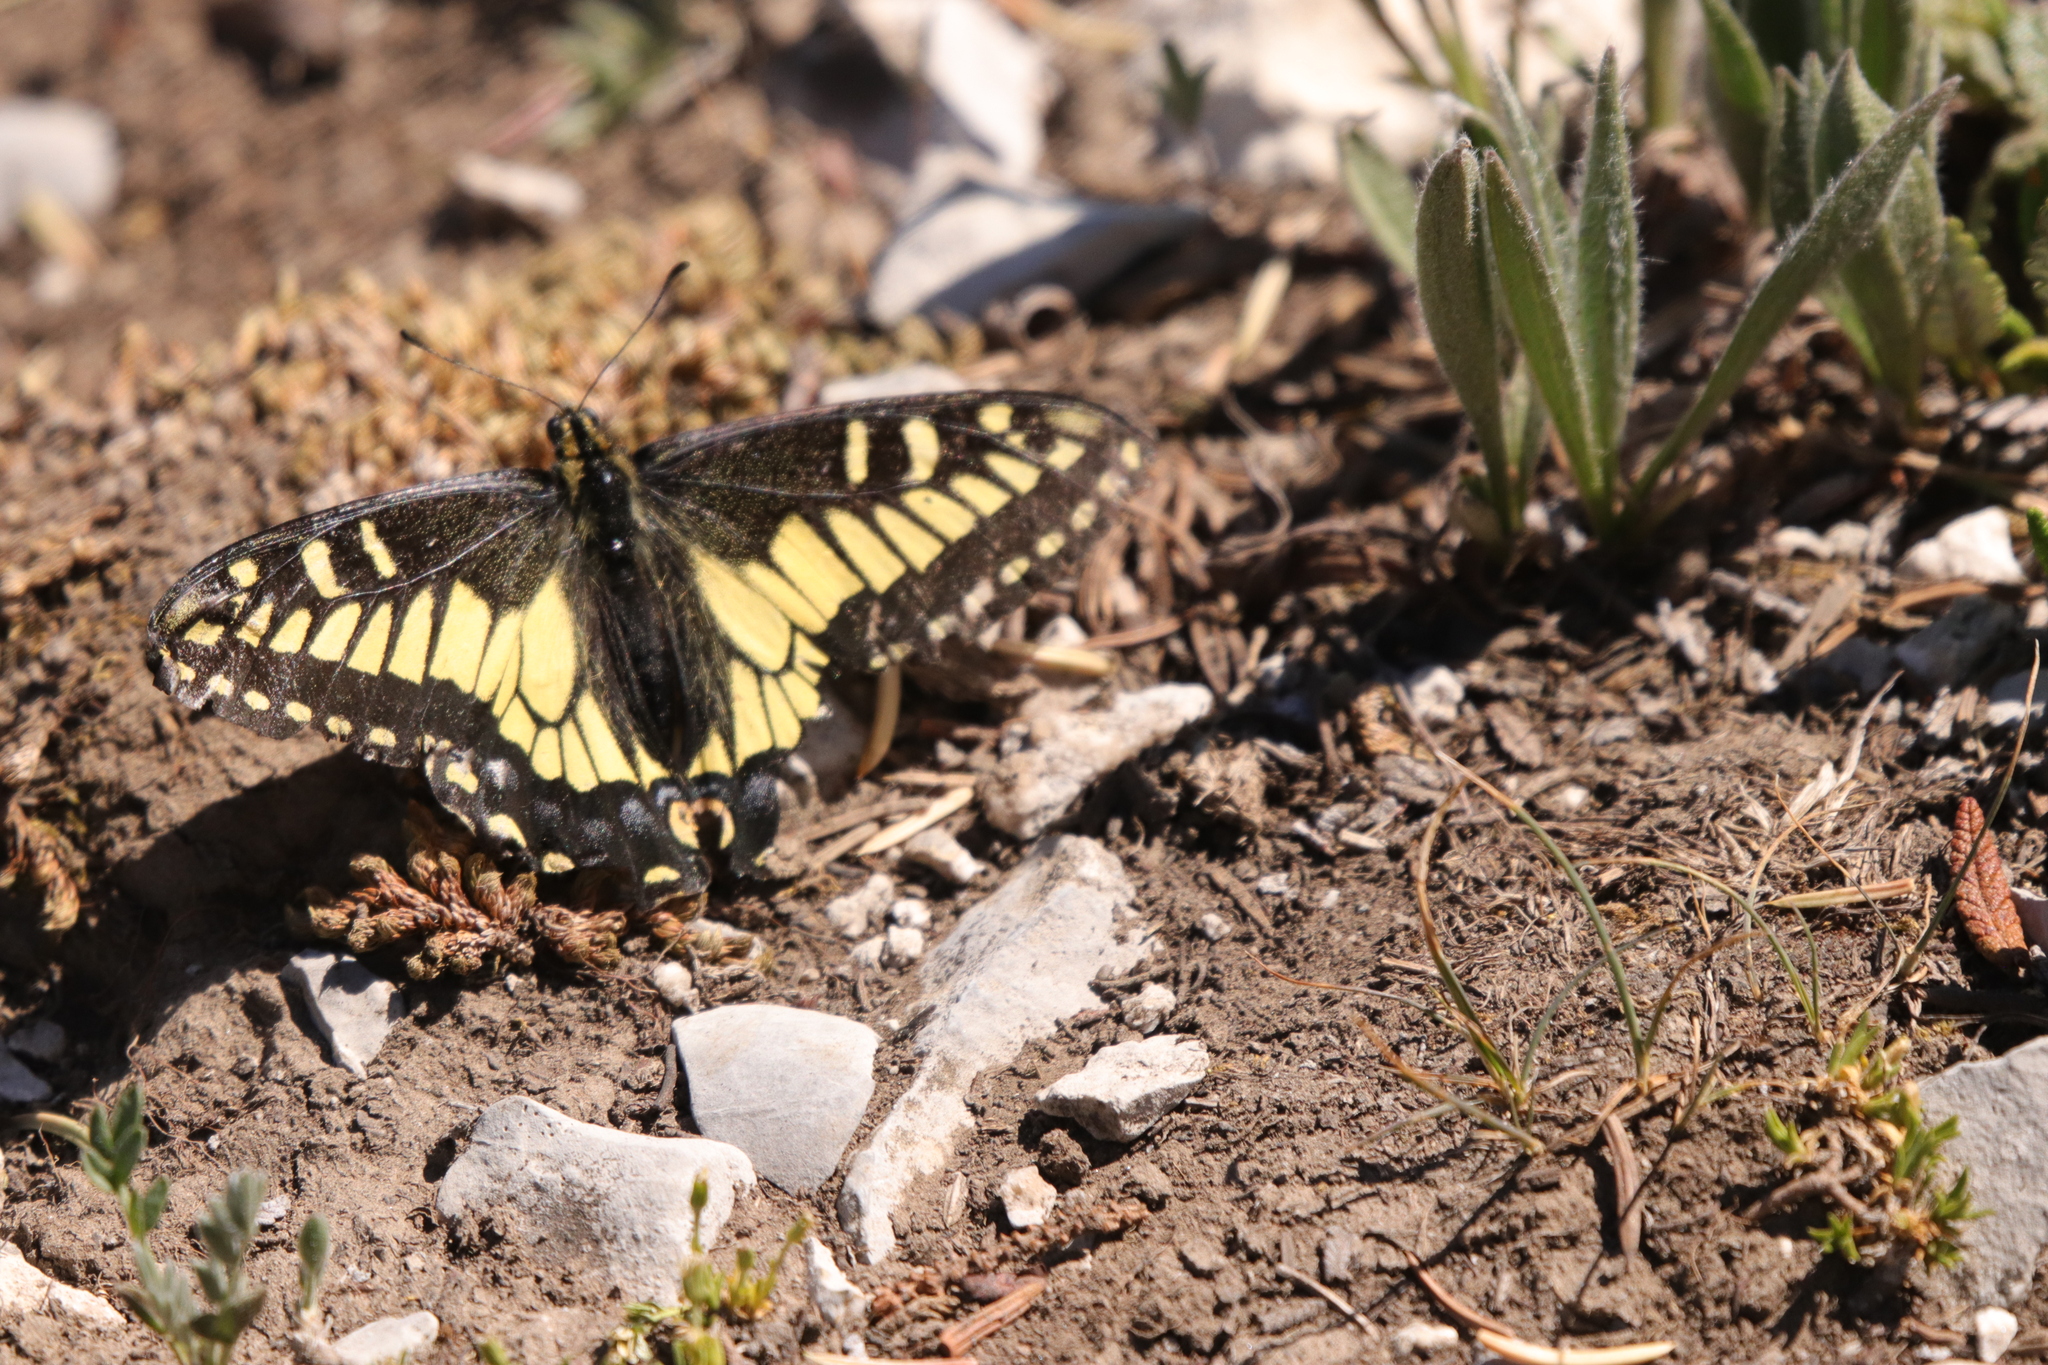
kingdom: Animalia
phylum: Arthropoda
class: Insecta
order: Lepidoptera
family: Papilionidae
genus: Papilio
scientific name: Papilio zelicaon
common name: Anise swallowtail
